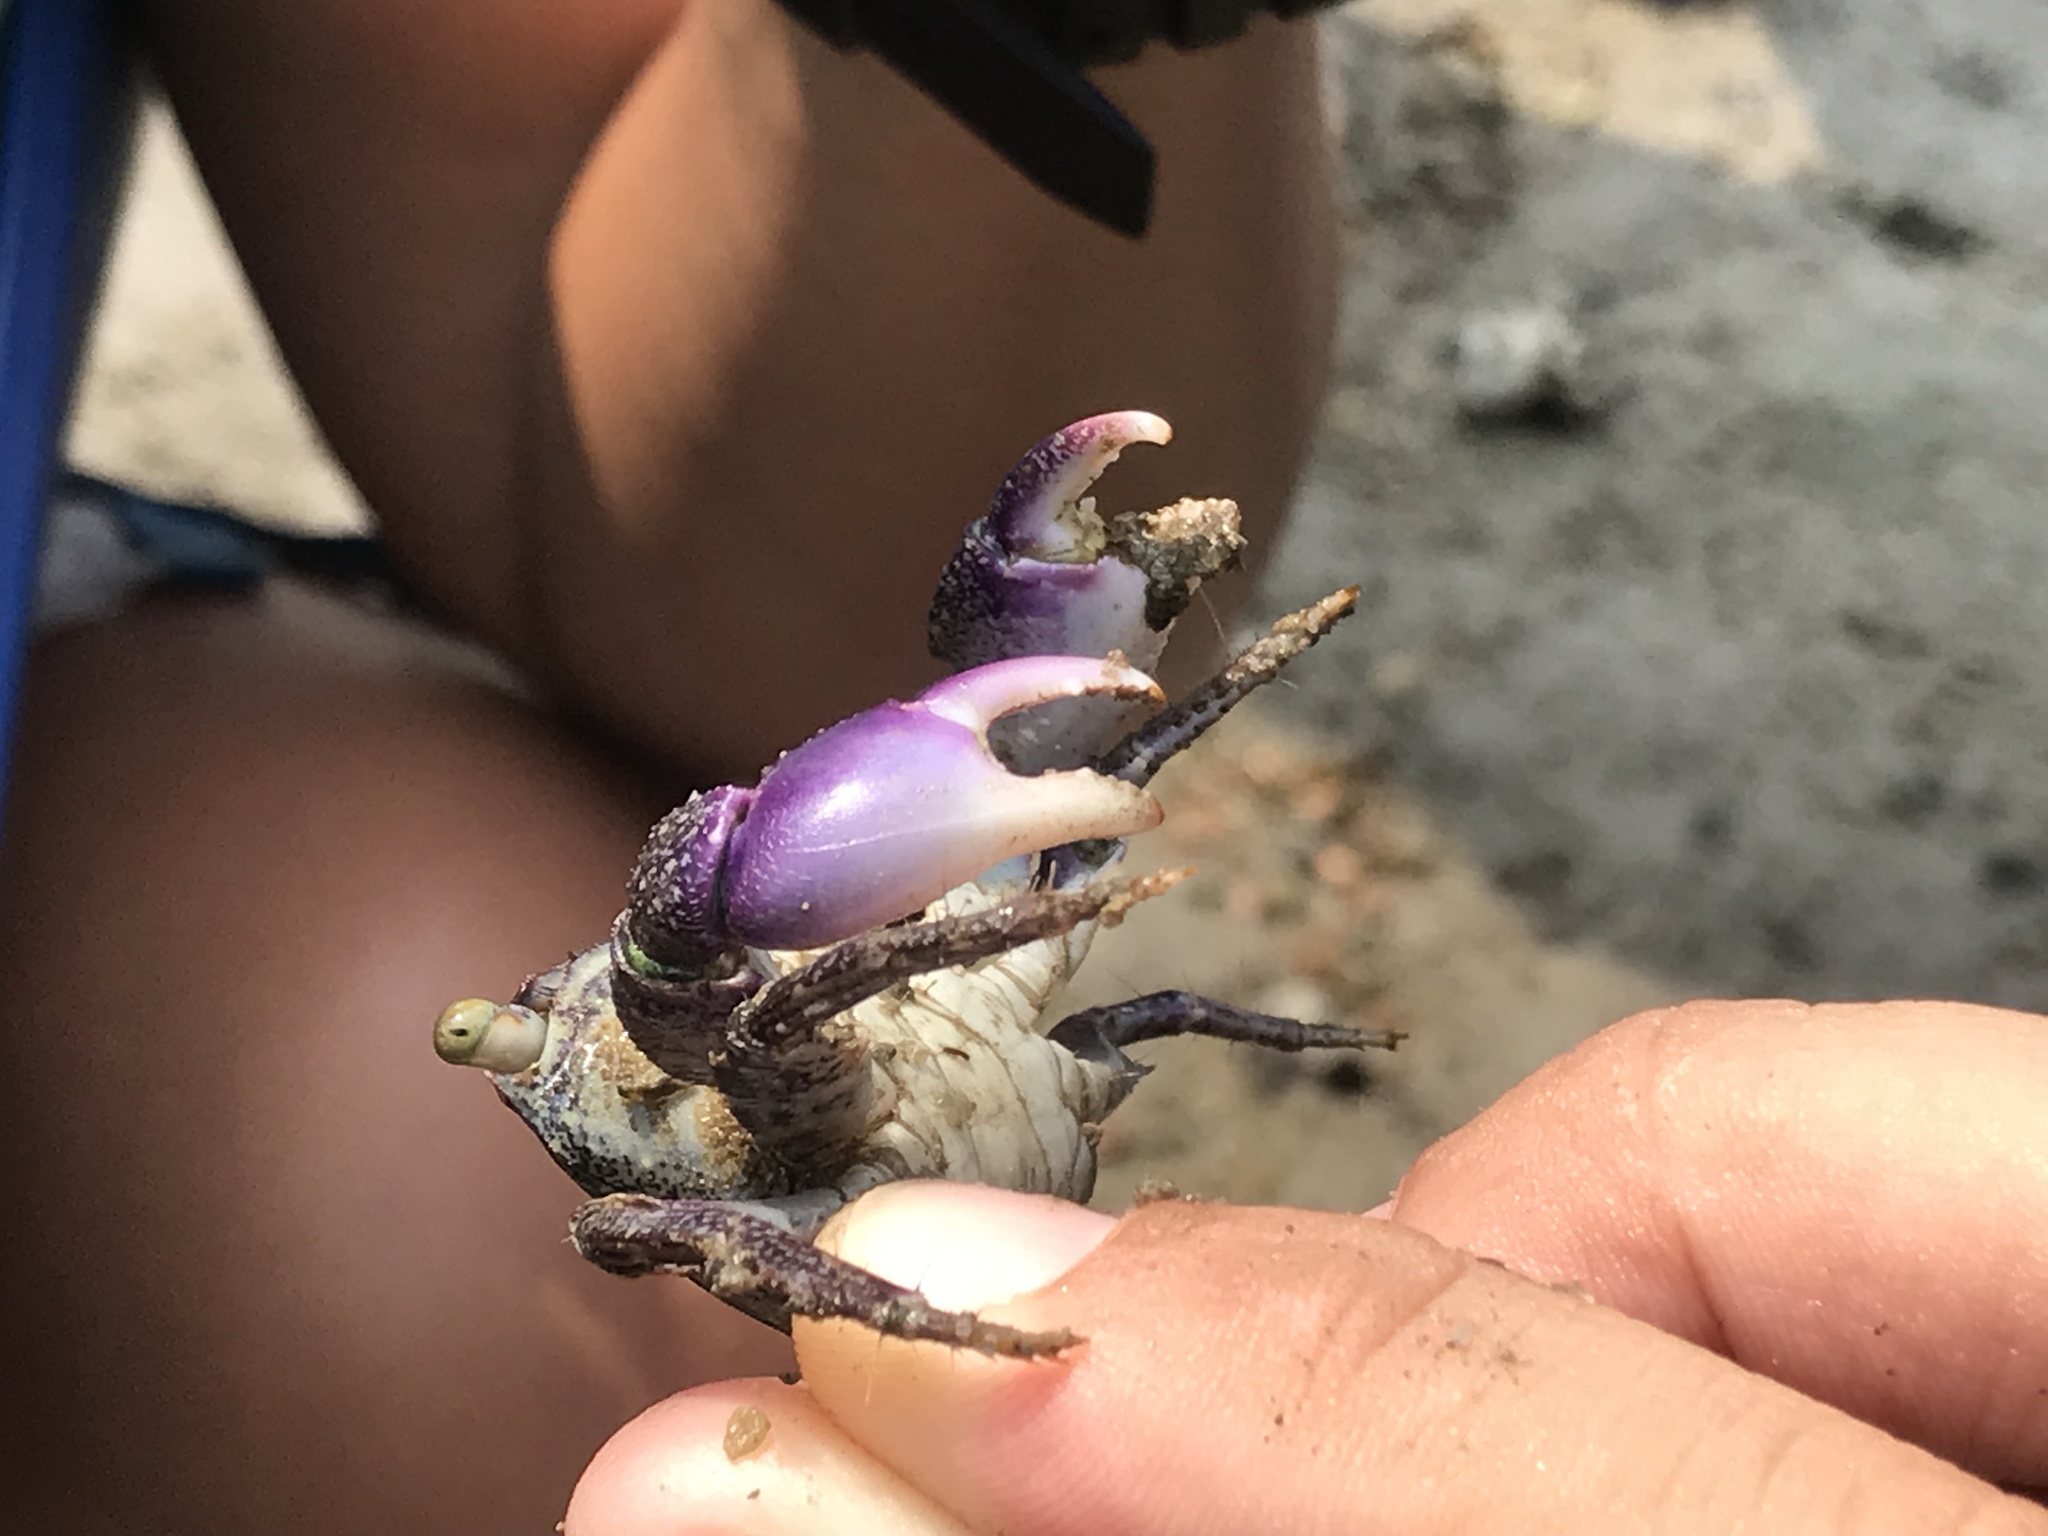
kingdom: Animalia
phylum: Arthropoda
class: Malacostraca
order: Decapoda
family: Grapsidae
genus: Metopograpsus
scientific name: Metopograpsus frontalis
